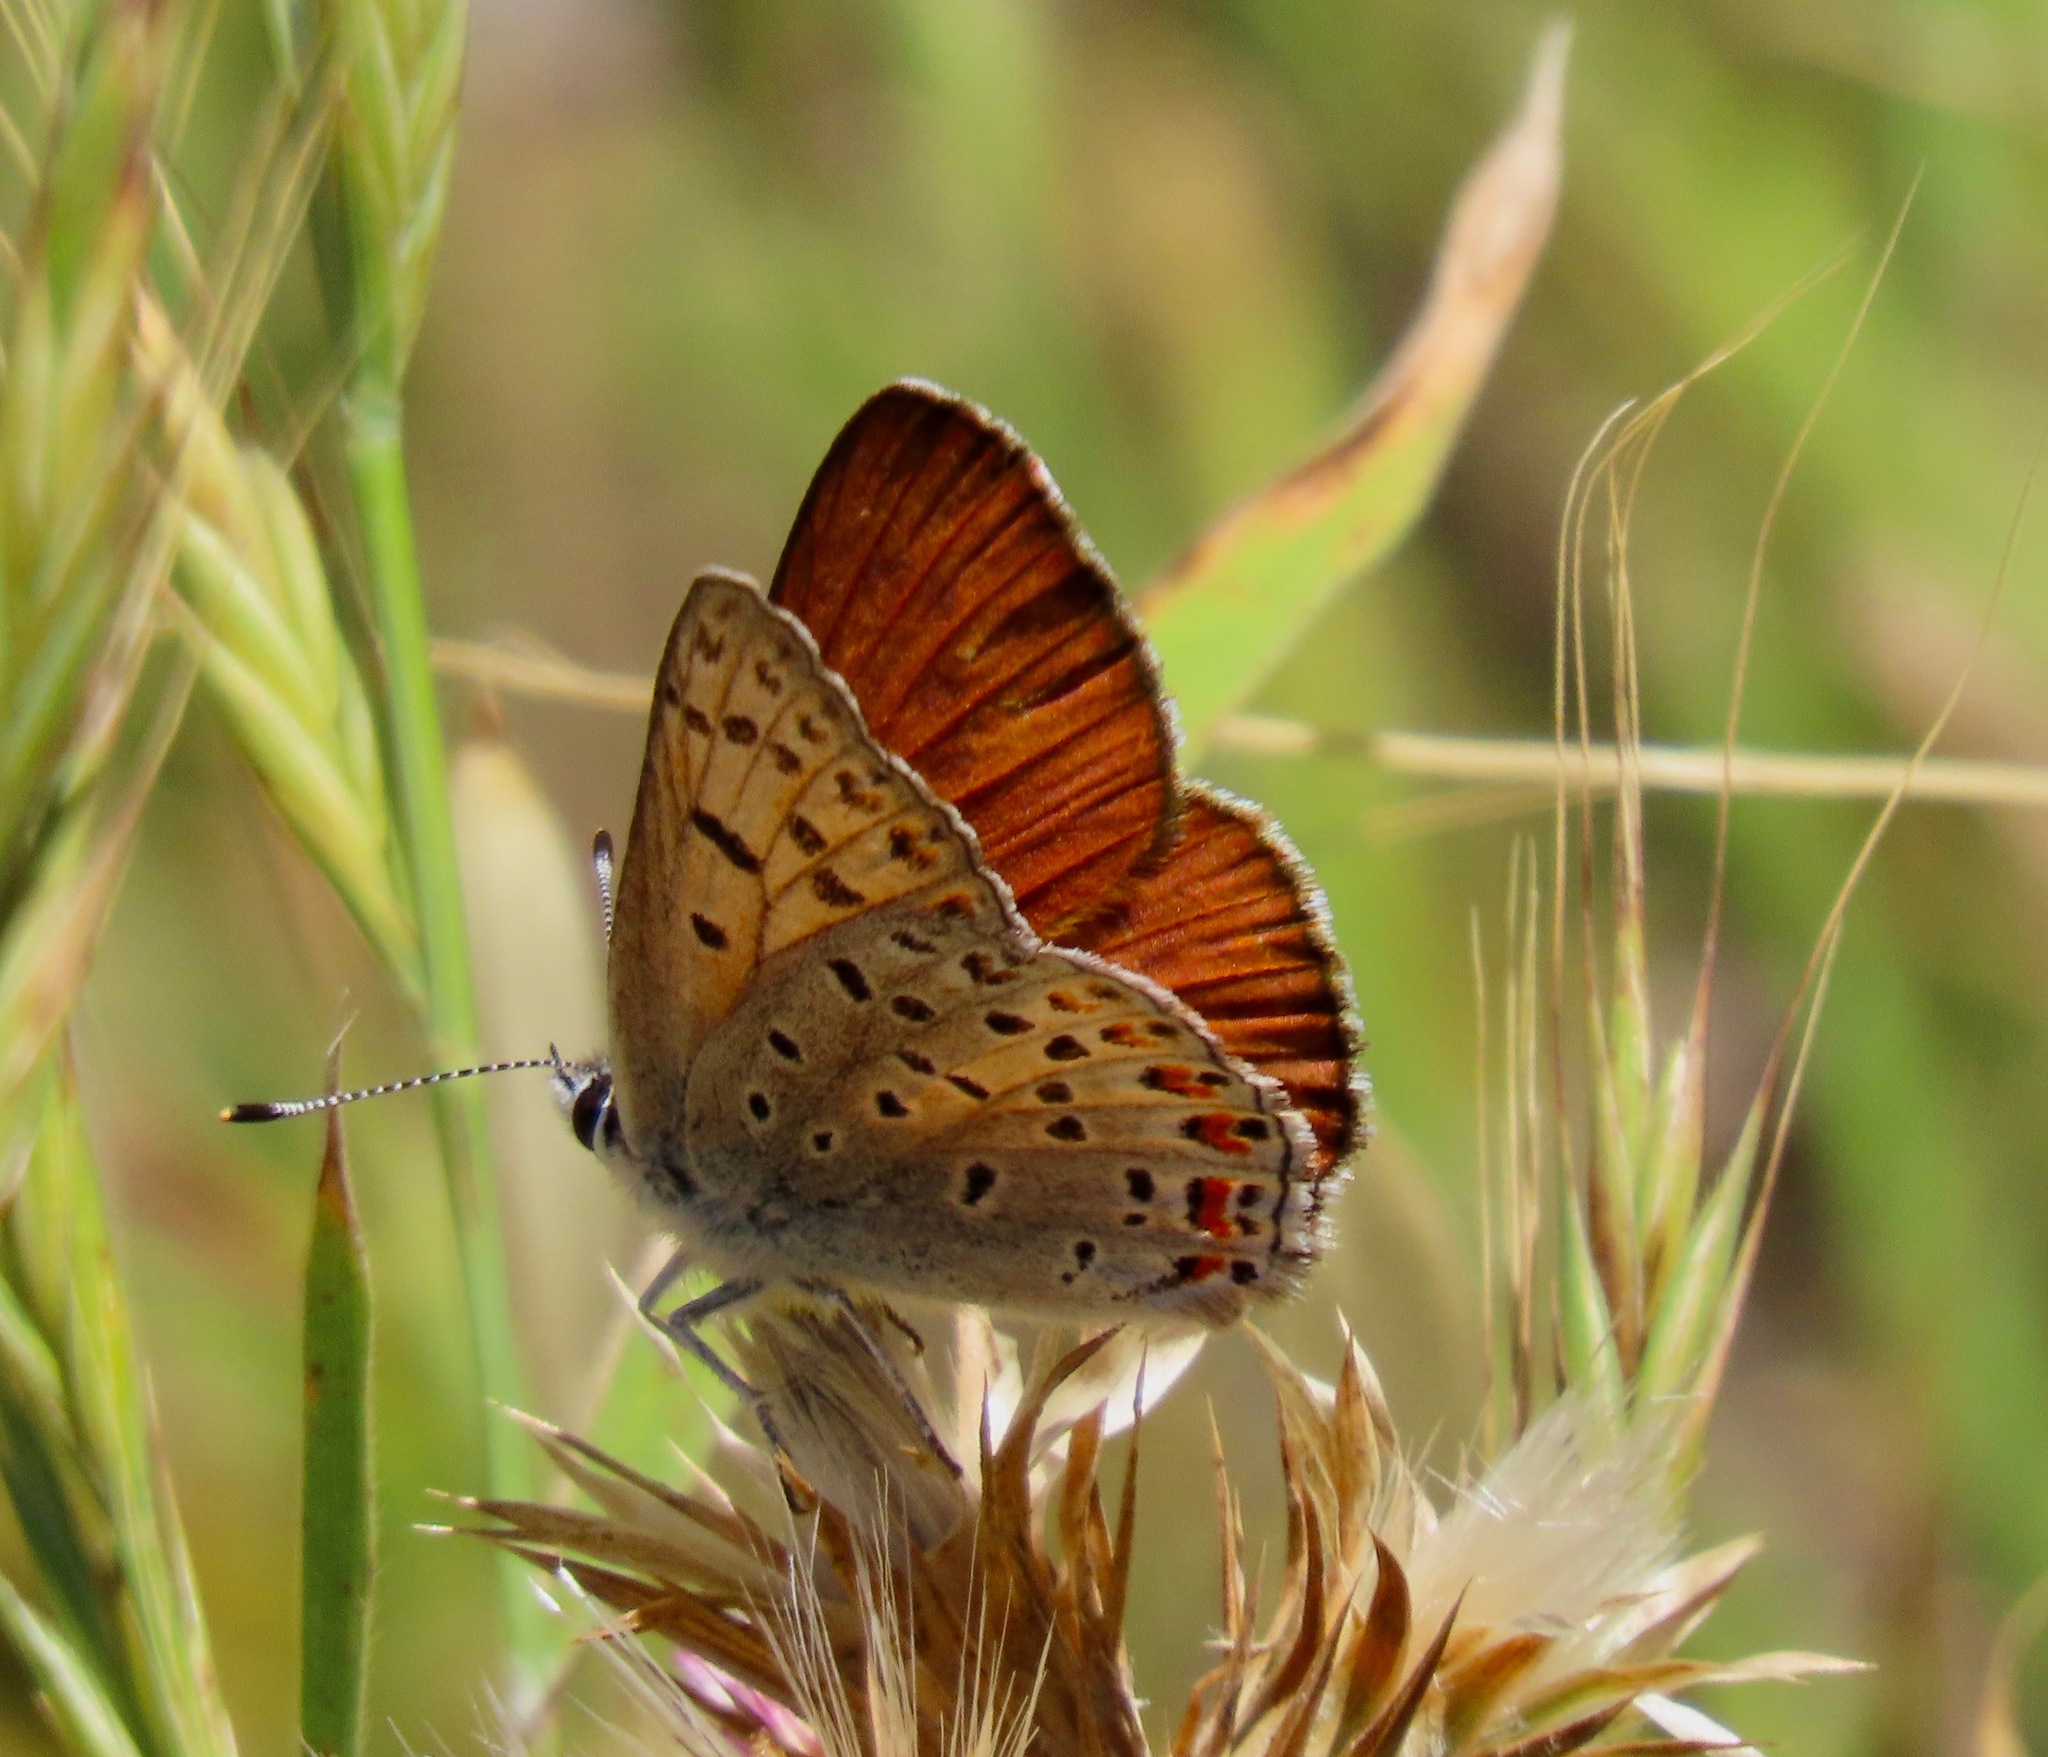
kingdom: Animalia
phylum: Arthropoda
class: Insecta
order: Lepidoptera
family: Lycaenidae
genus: Tharsalea
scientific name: Tharsalea gorgon
